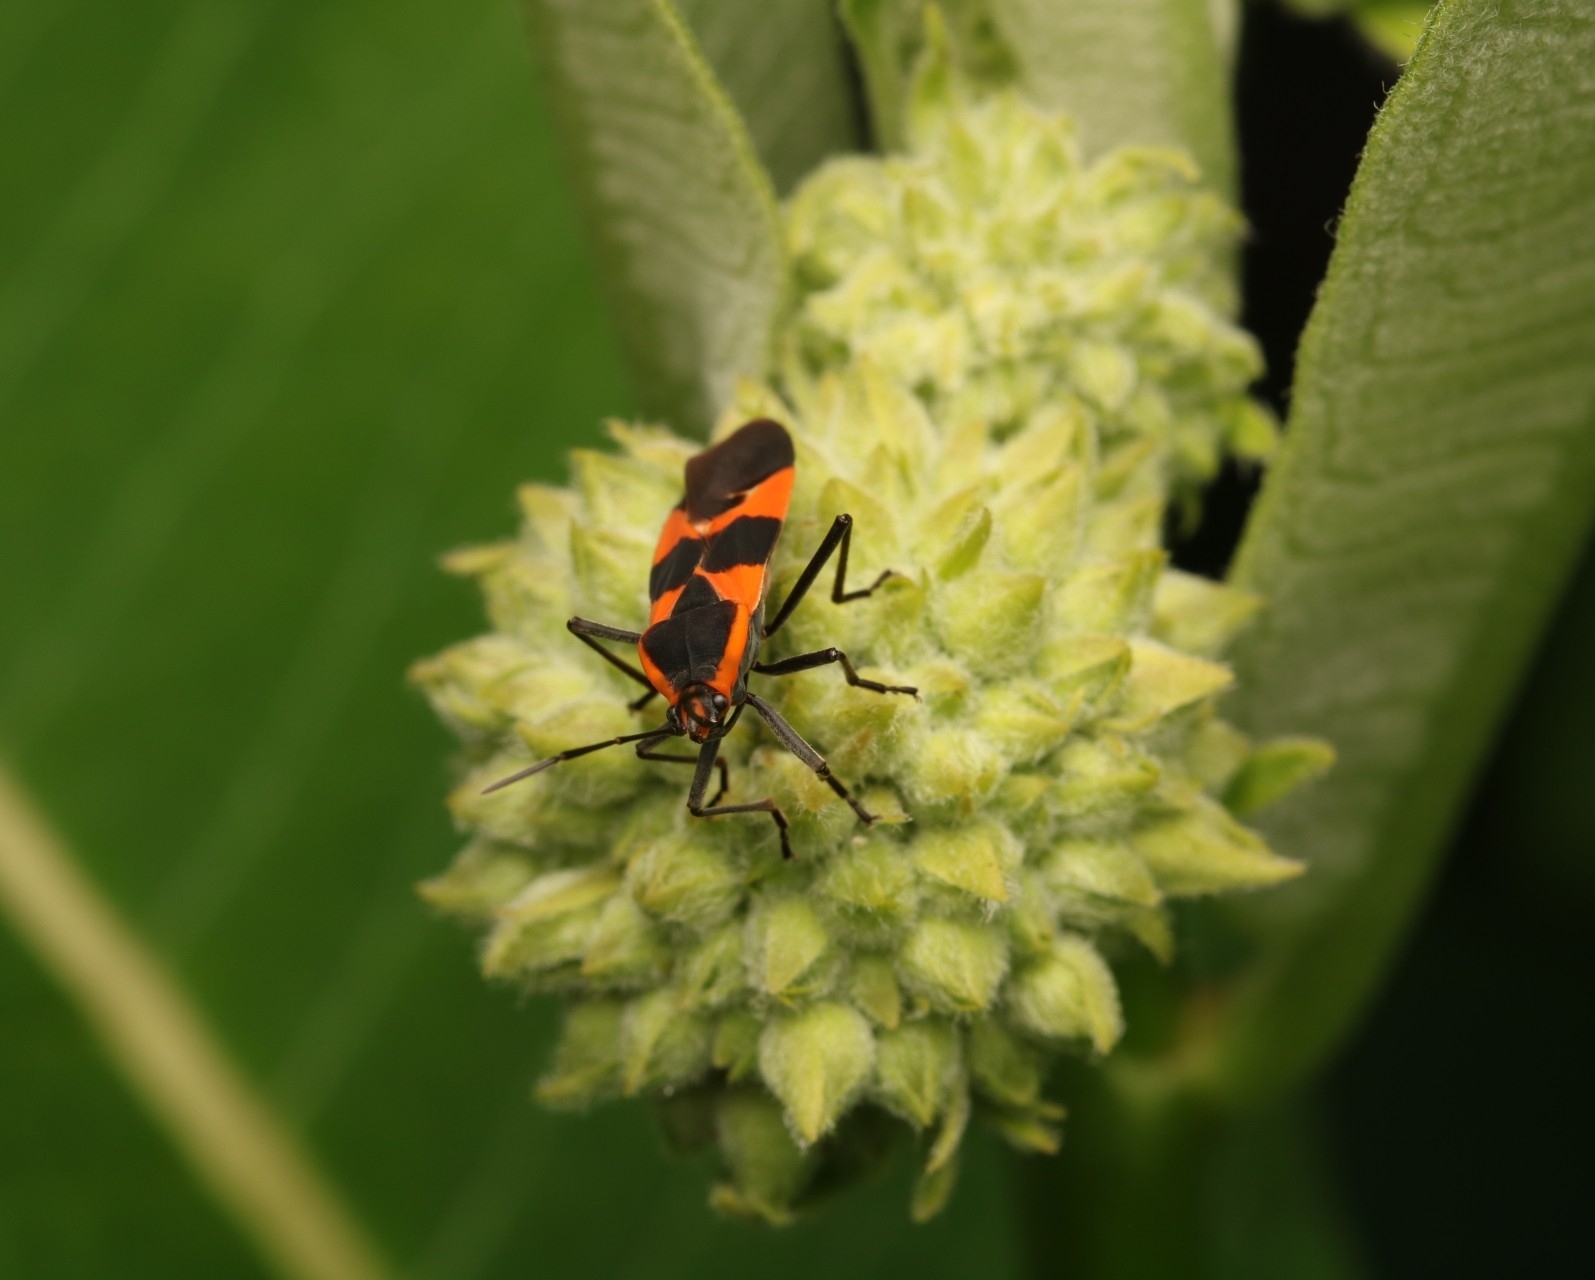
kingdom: Animalia
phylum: Arthropoda
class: Insecta
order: Hemiptera
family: Lygaeidae
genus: Oncopeltus
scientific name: Oncopeltus fasciatus
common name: Large milkweed bug
